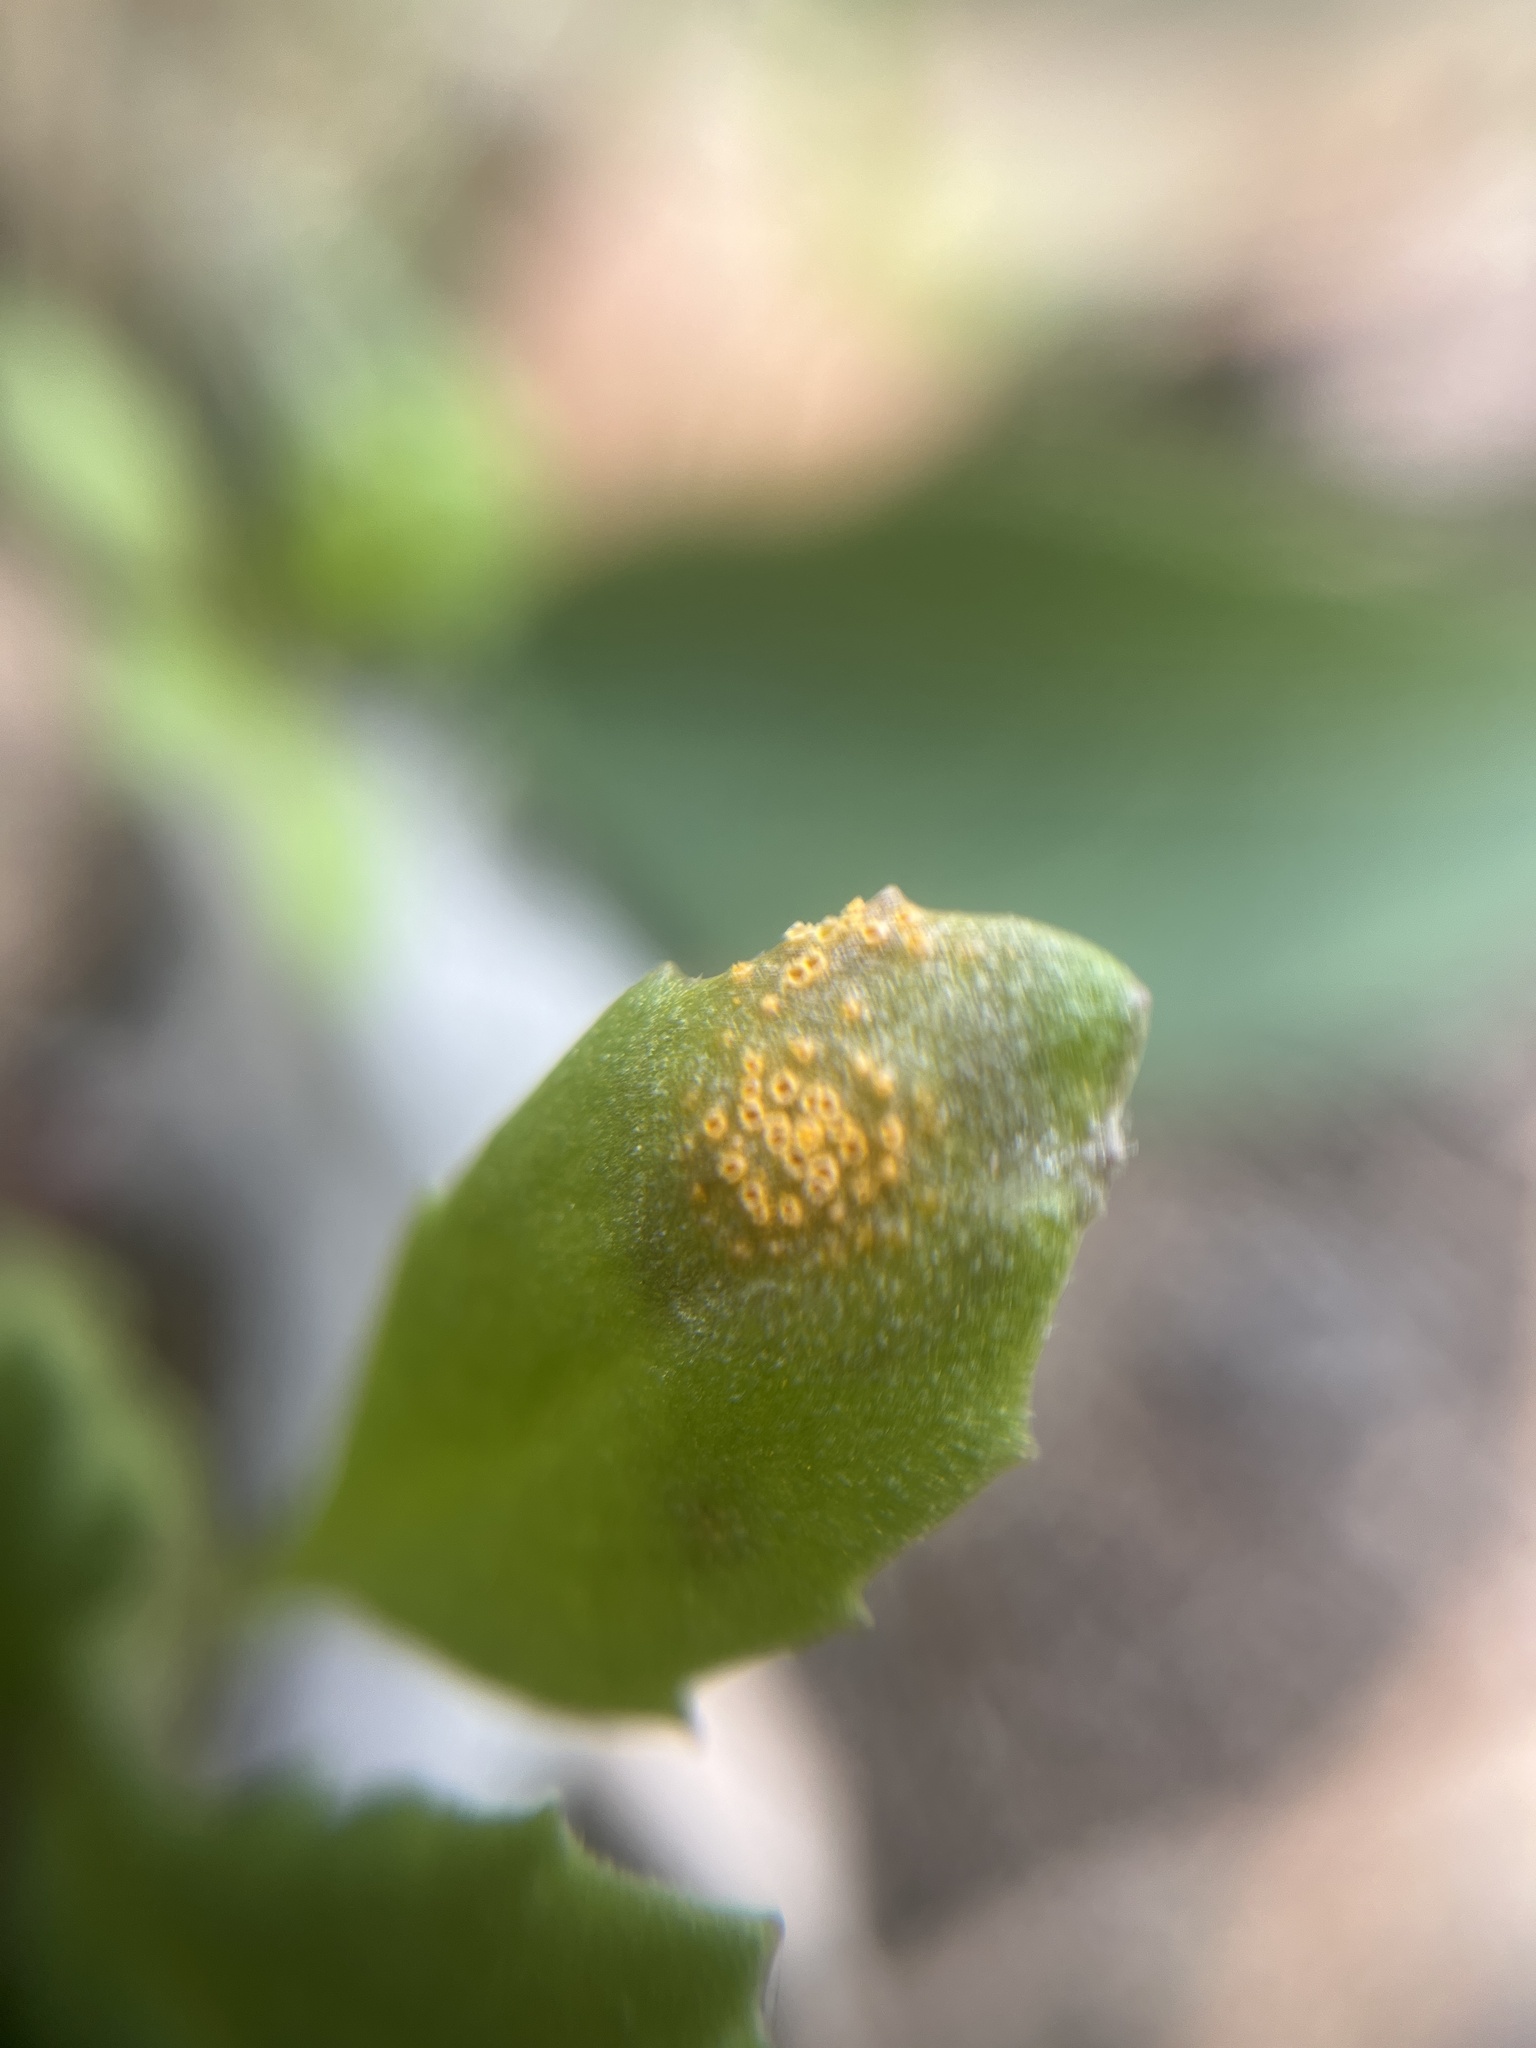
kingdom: Fungi
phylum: Basidiomycota
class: Pucciniomycetes
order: Pucciniales
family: Pucciniaceae
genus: Puccinia
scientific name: Puccinia lagenophorae
